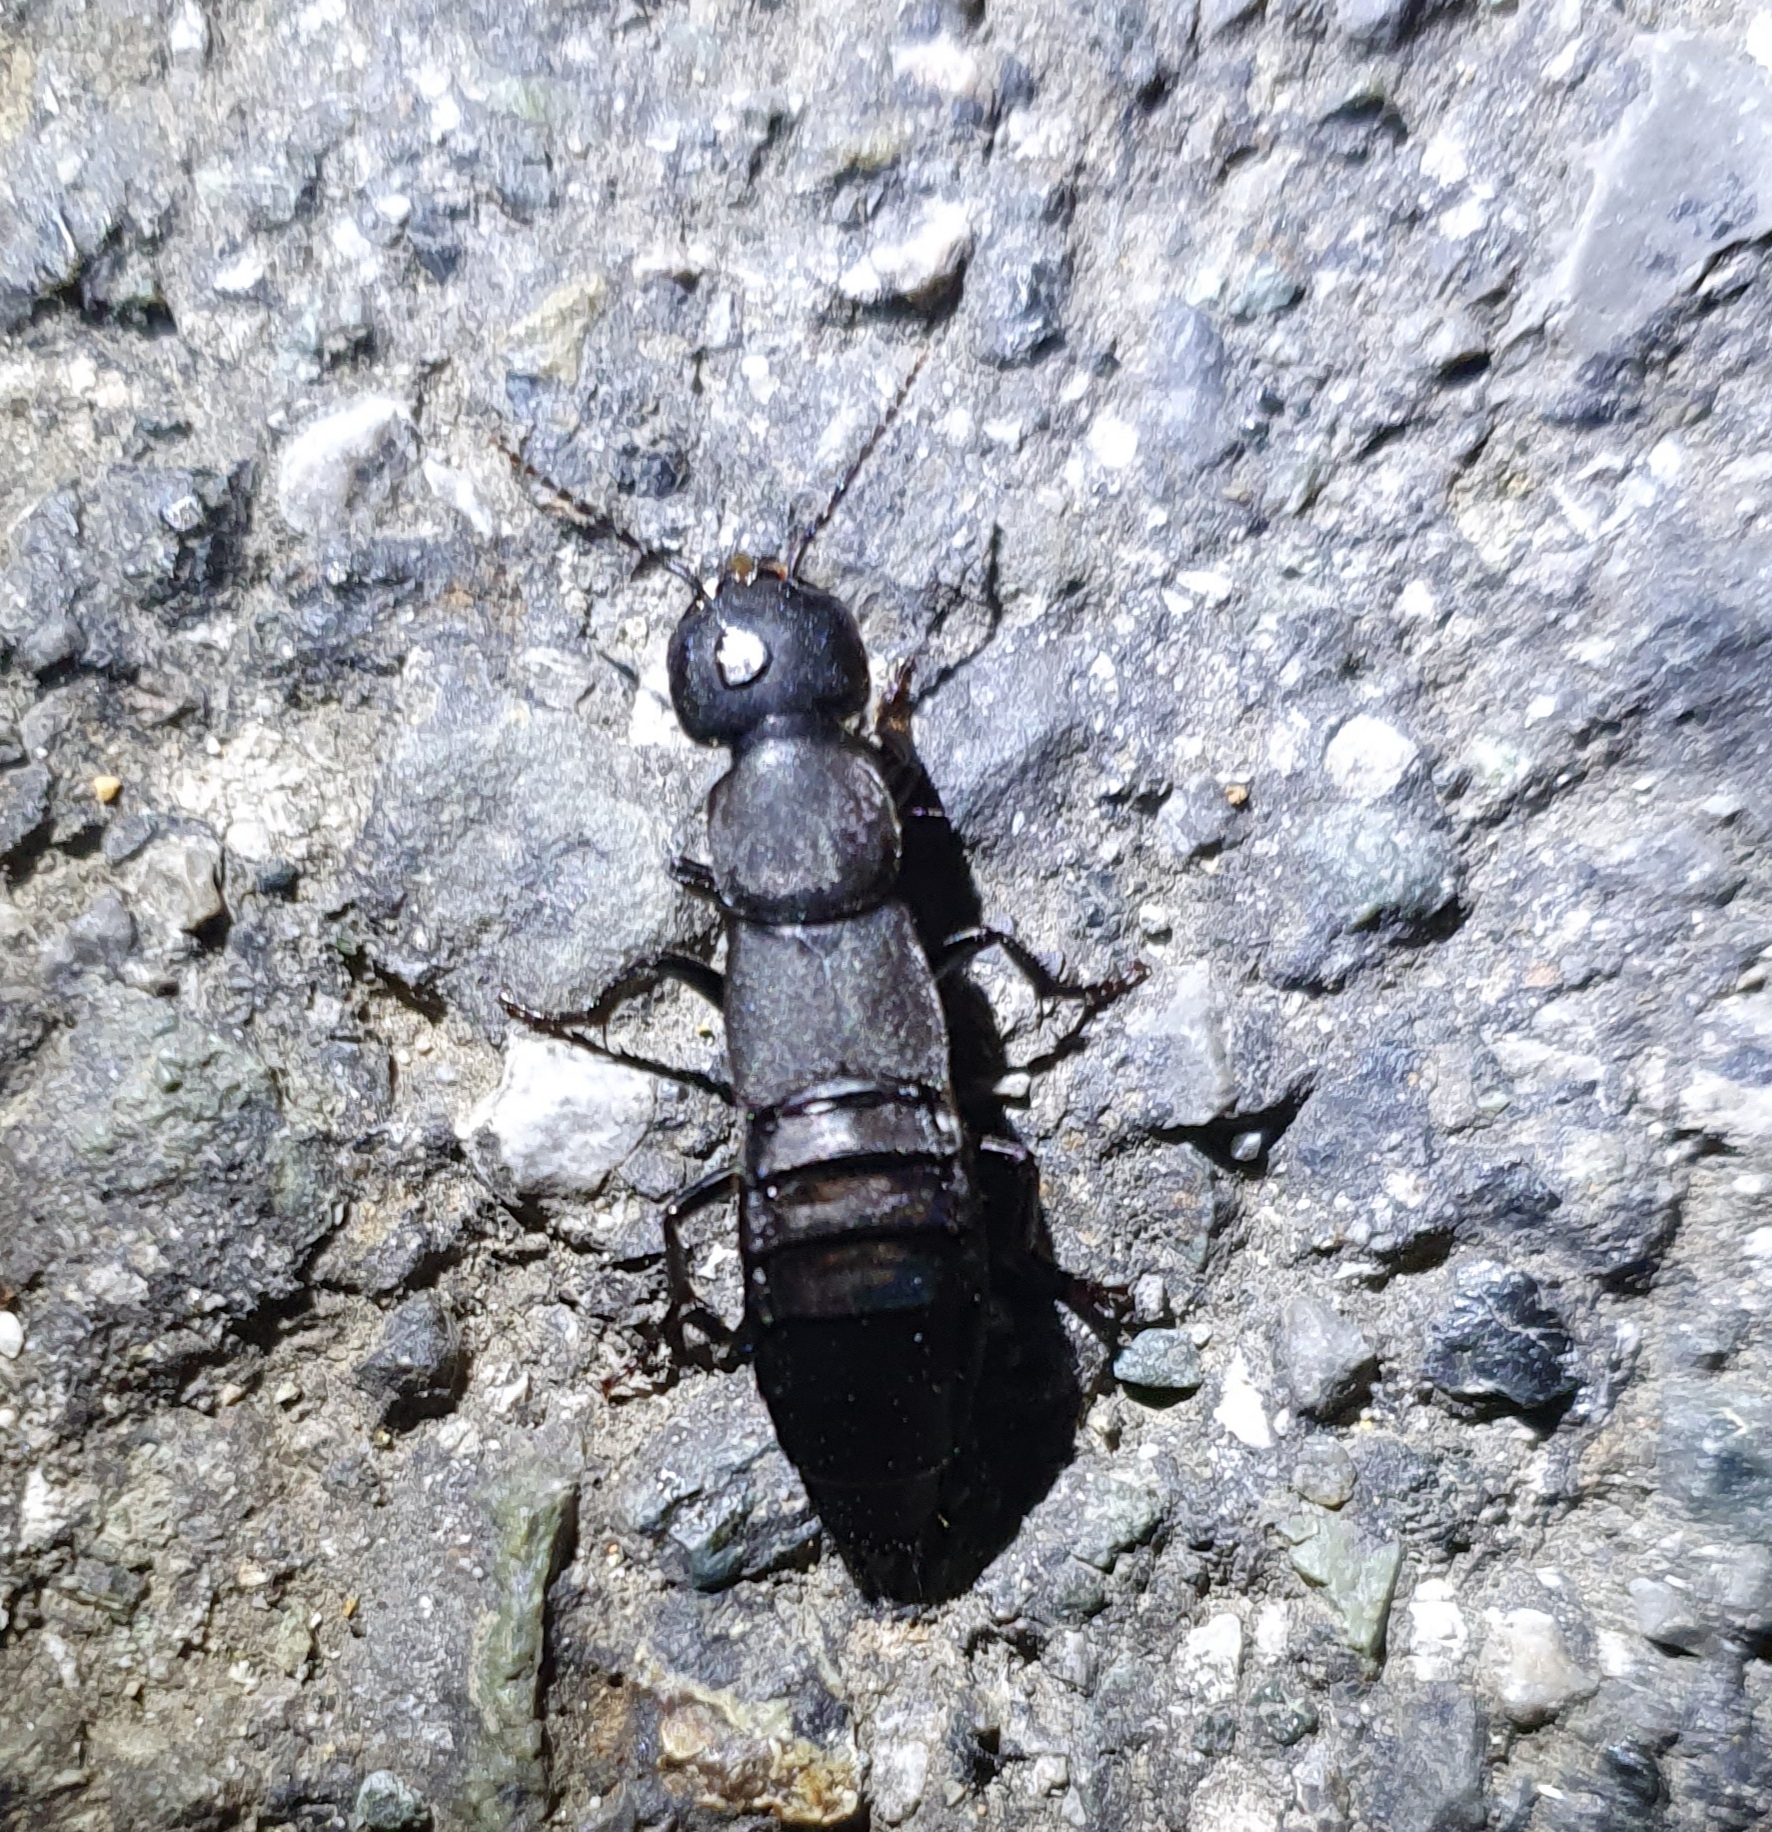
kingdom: Animalia
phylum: Arthropoda
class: Insecta
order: Coleoptera
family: Staphylinidae
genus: Ocypus
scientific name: Ocypus olens
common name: Devil's coach-horse
